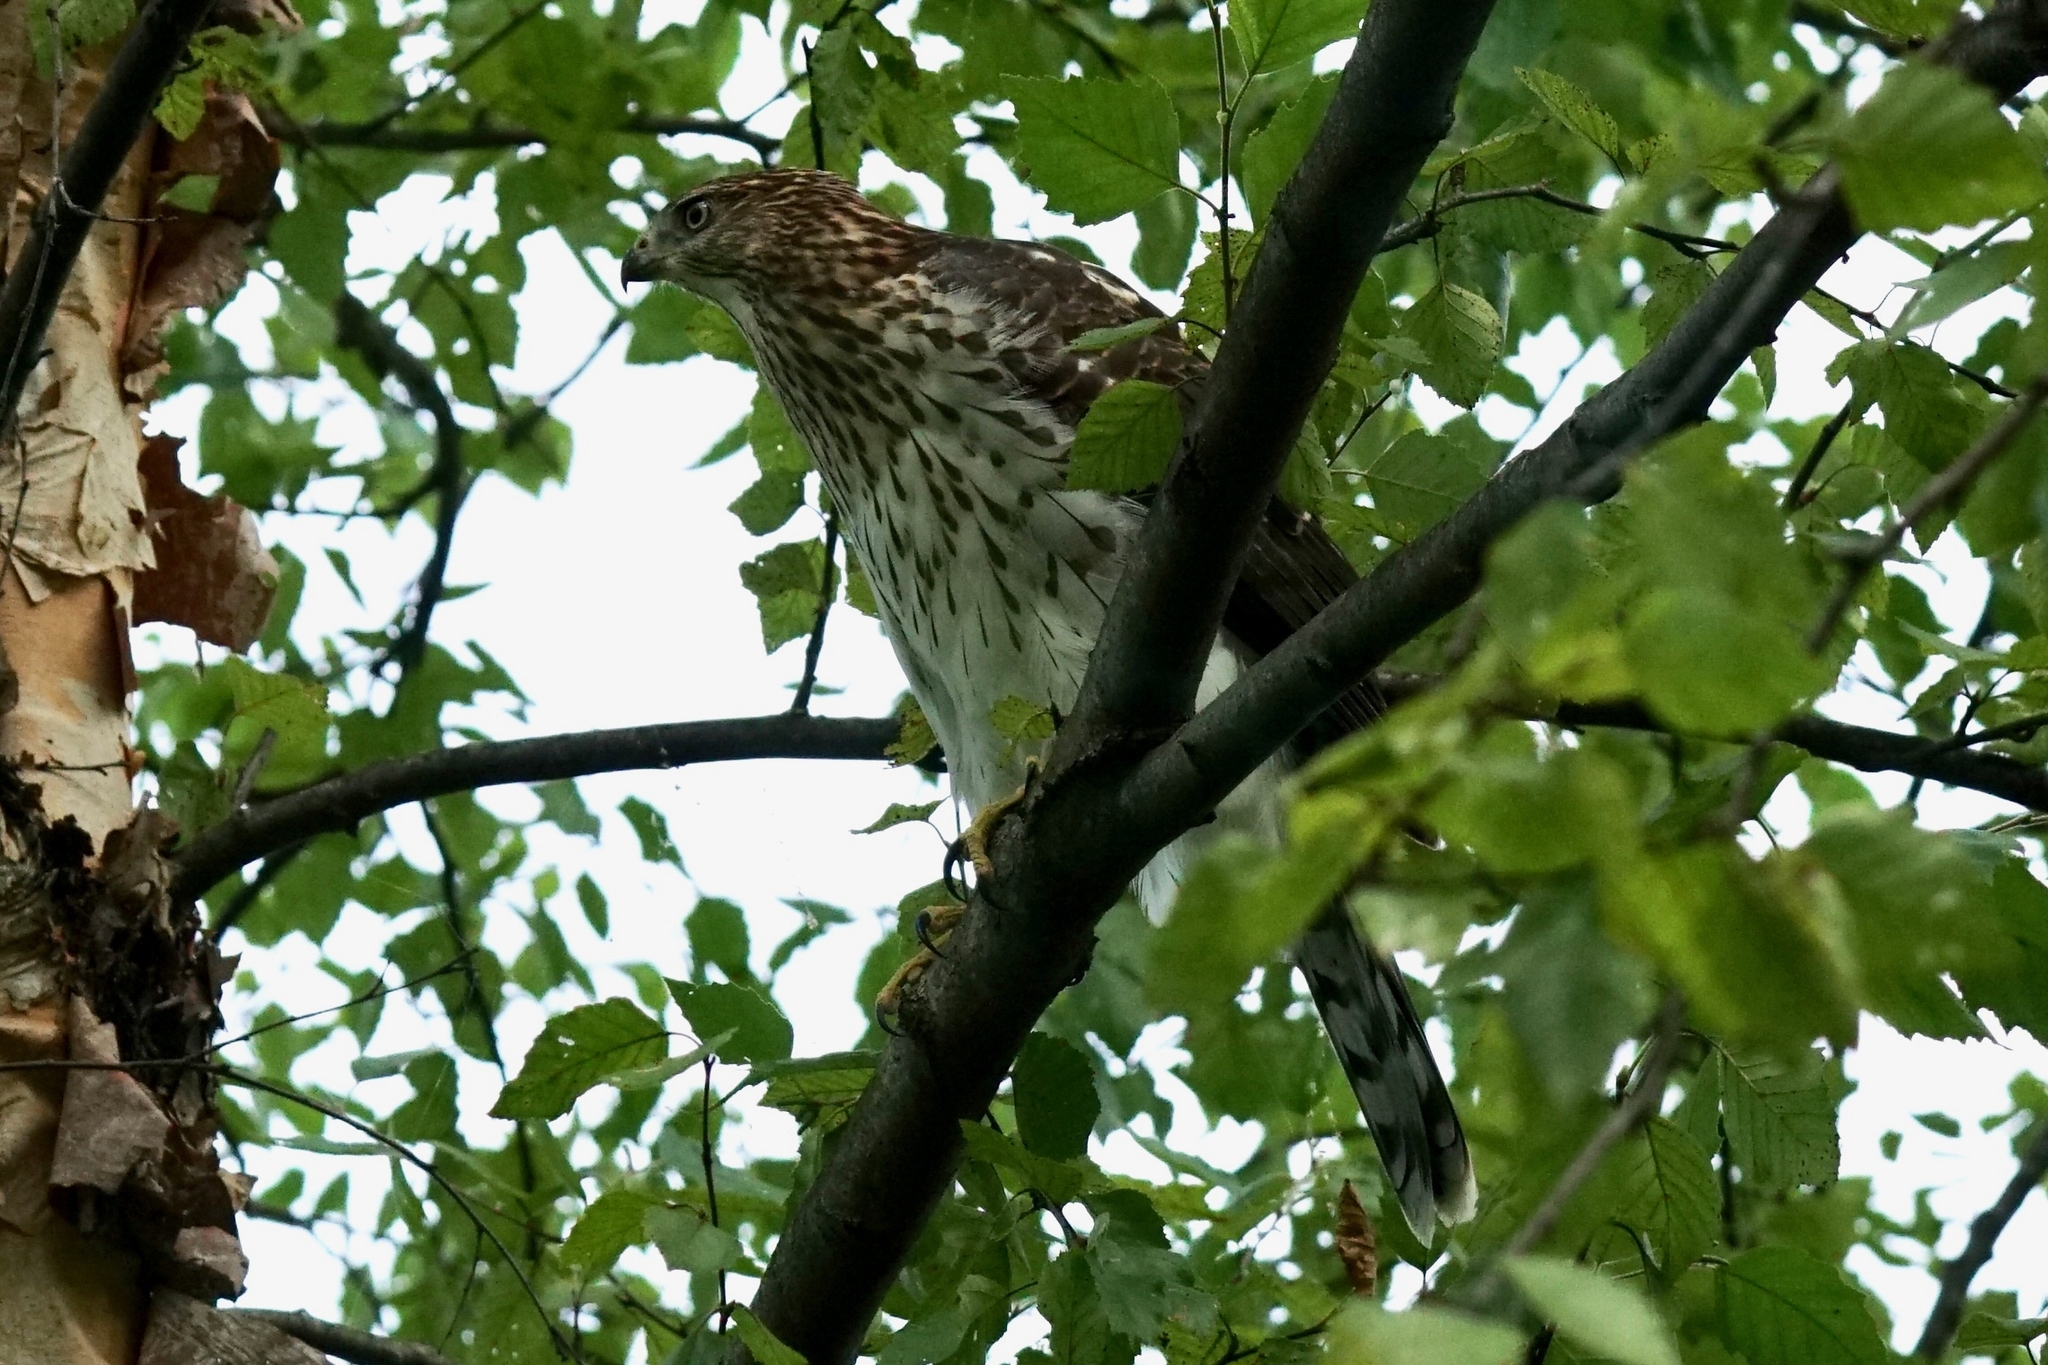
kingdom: Animalia
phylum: Chordata
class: Aves
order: Accipitriformes
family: Accipitridae
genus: Accipiter
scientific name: Accipiter cooperii
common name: Cooper's hawk
